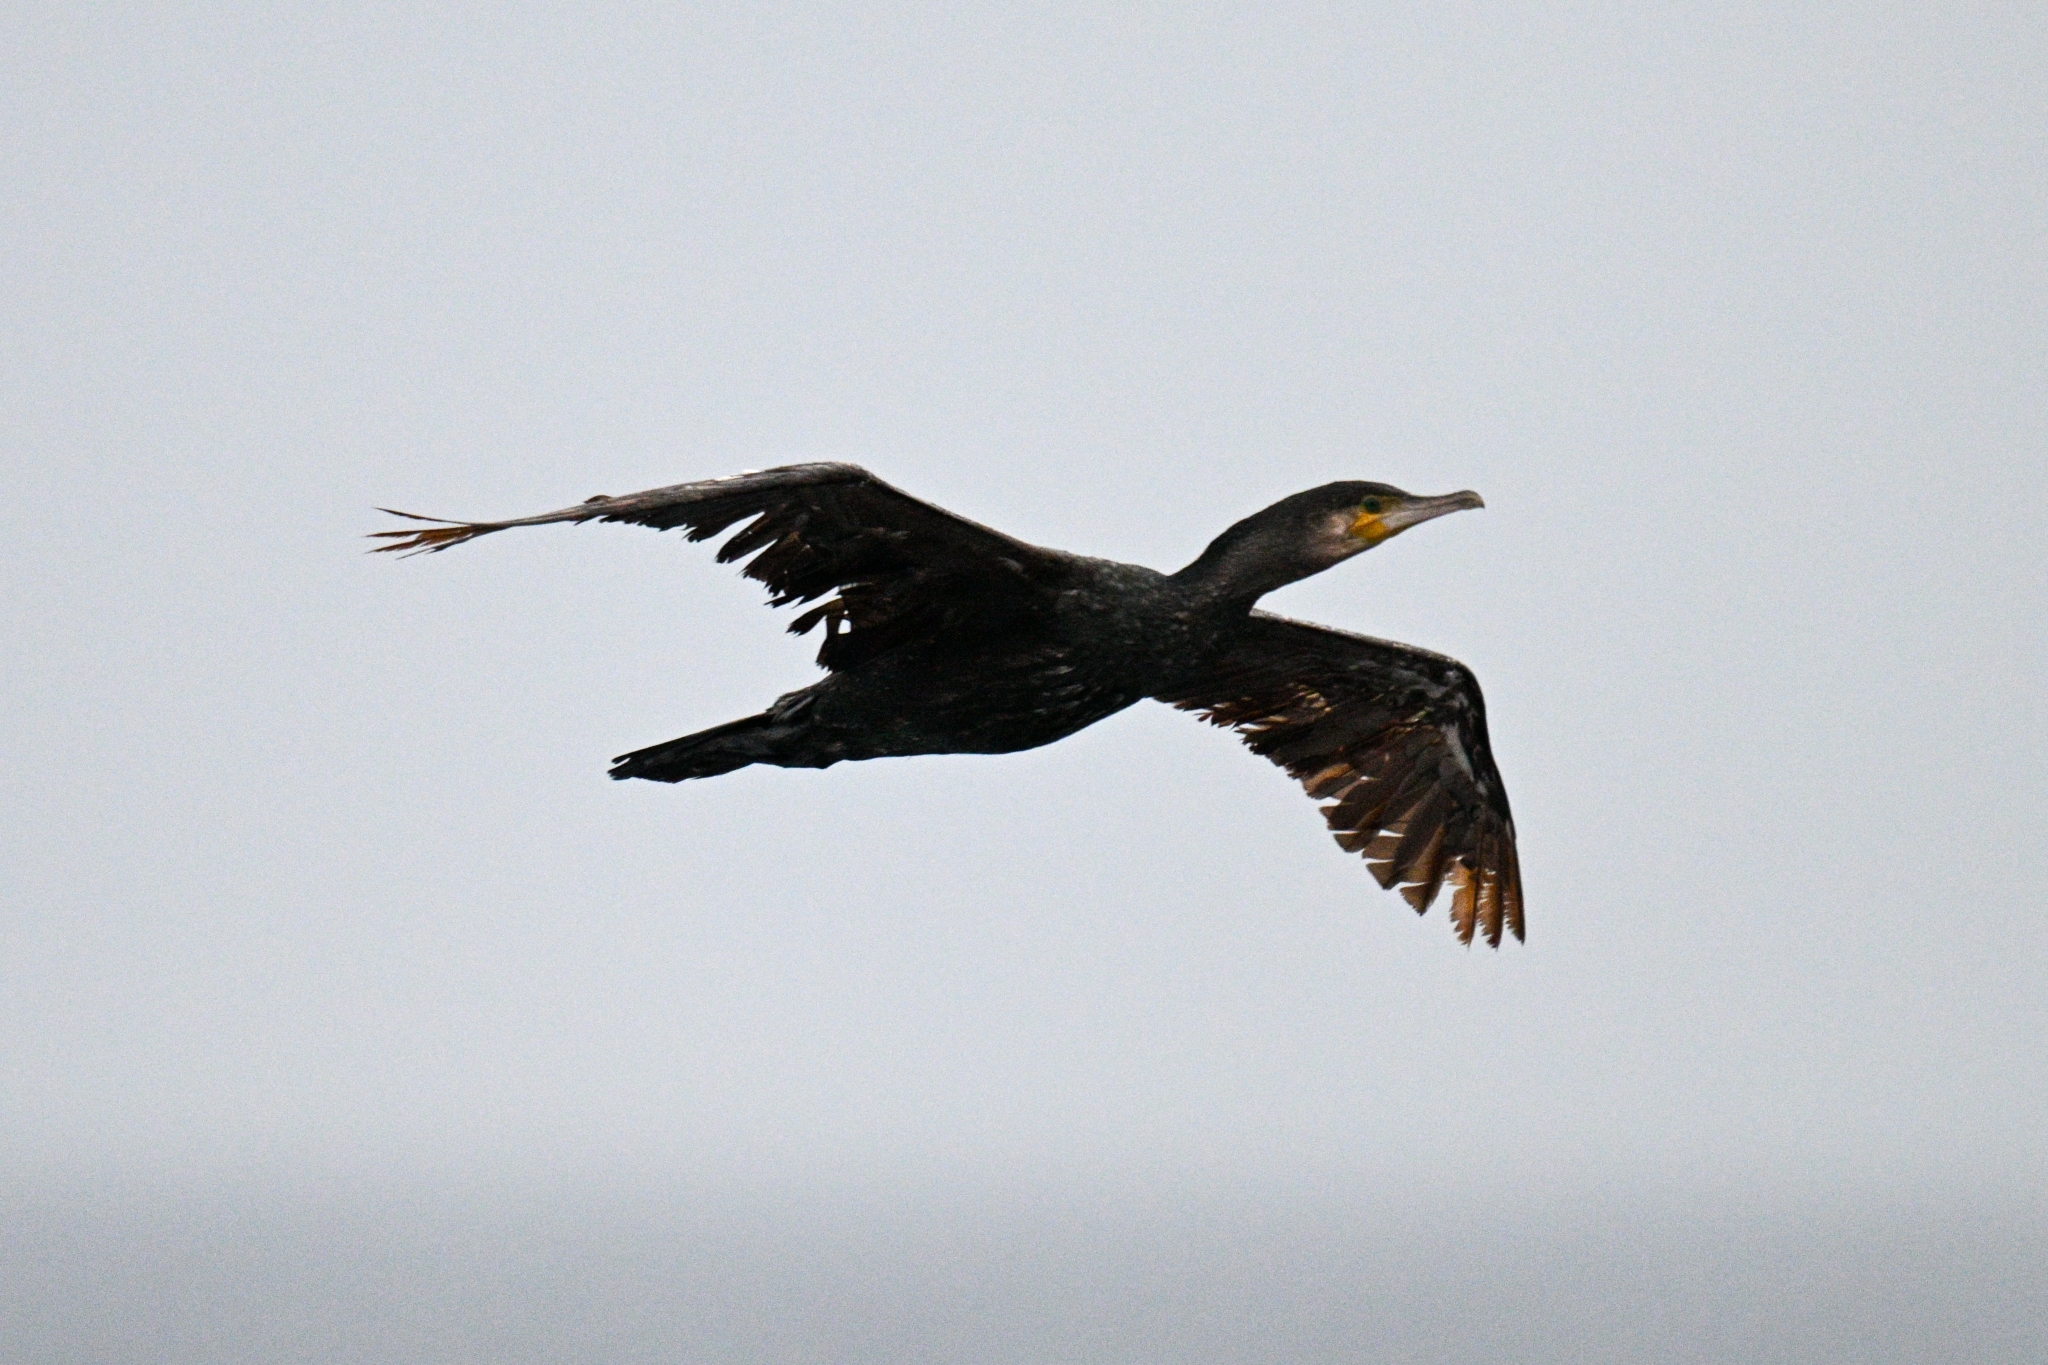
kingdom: Animalia
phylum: Chordata
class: Aves
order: Suliformes
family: Phalacrocoracidae
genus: Phalacrocorax
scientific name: Phalacrocorax carbo
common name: Great cormorant
